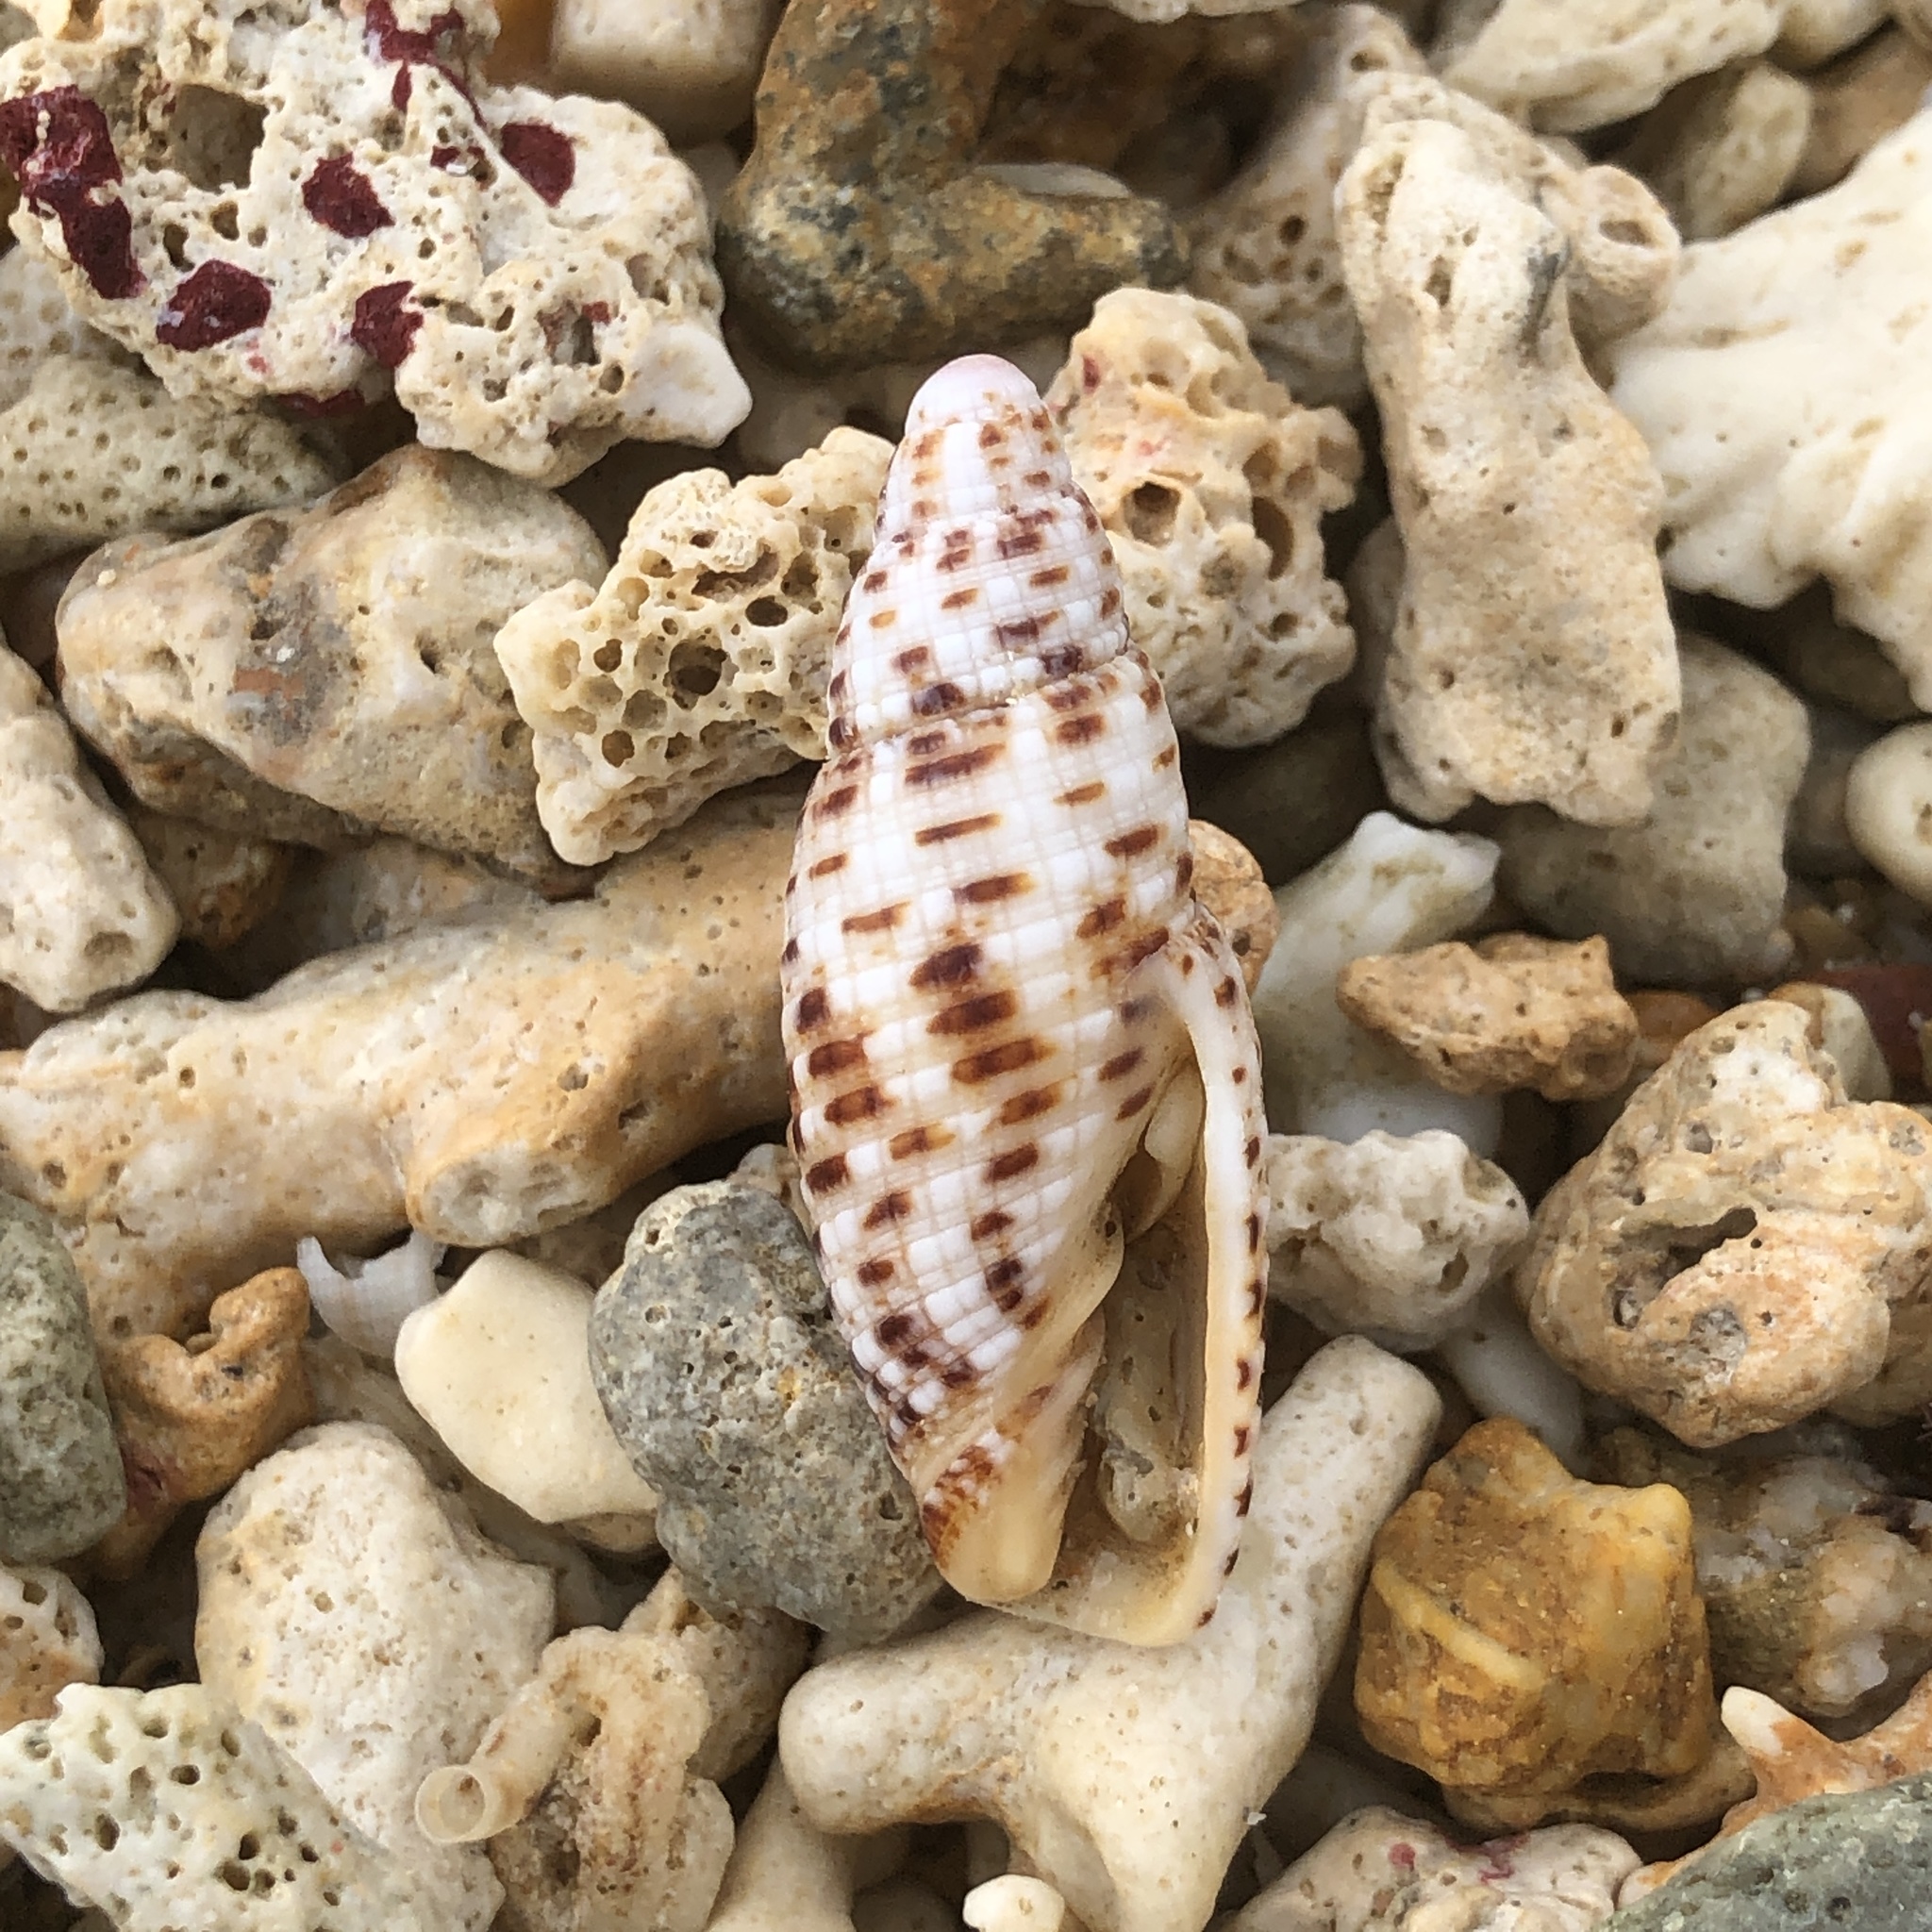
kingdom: Animalia
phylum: Mollusca
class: Gastropoda
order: Neogastropoda
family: Mitridae
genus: Neocancilla
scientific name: Neocancilla papilio
